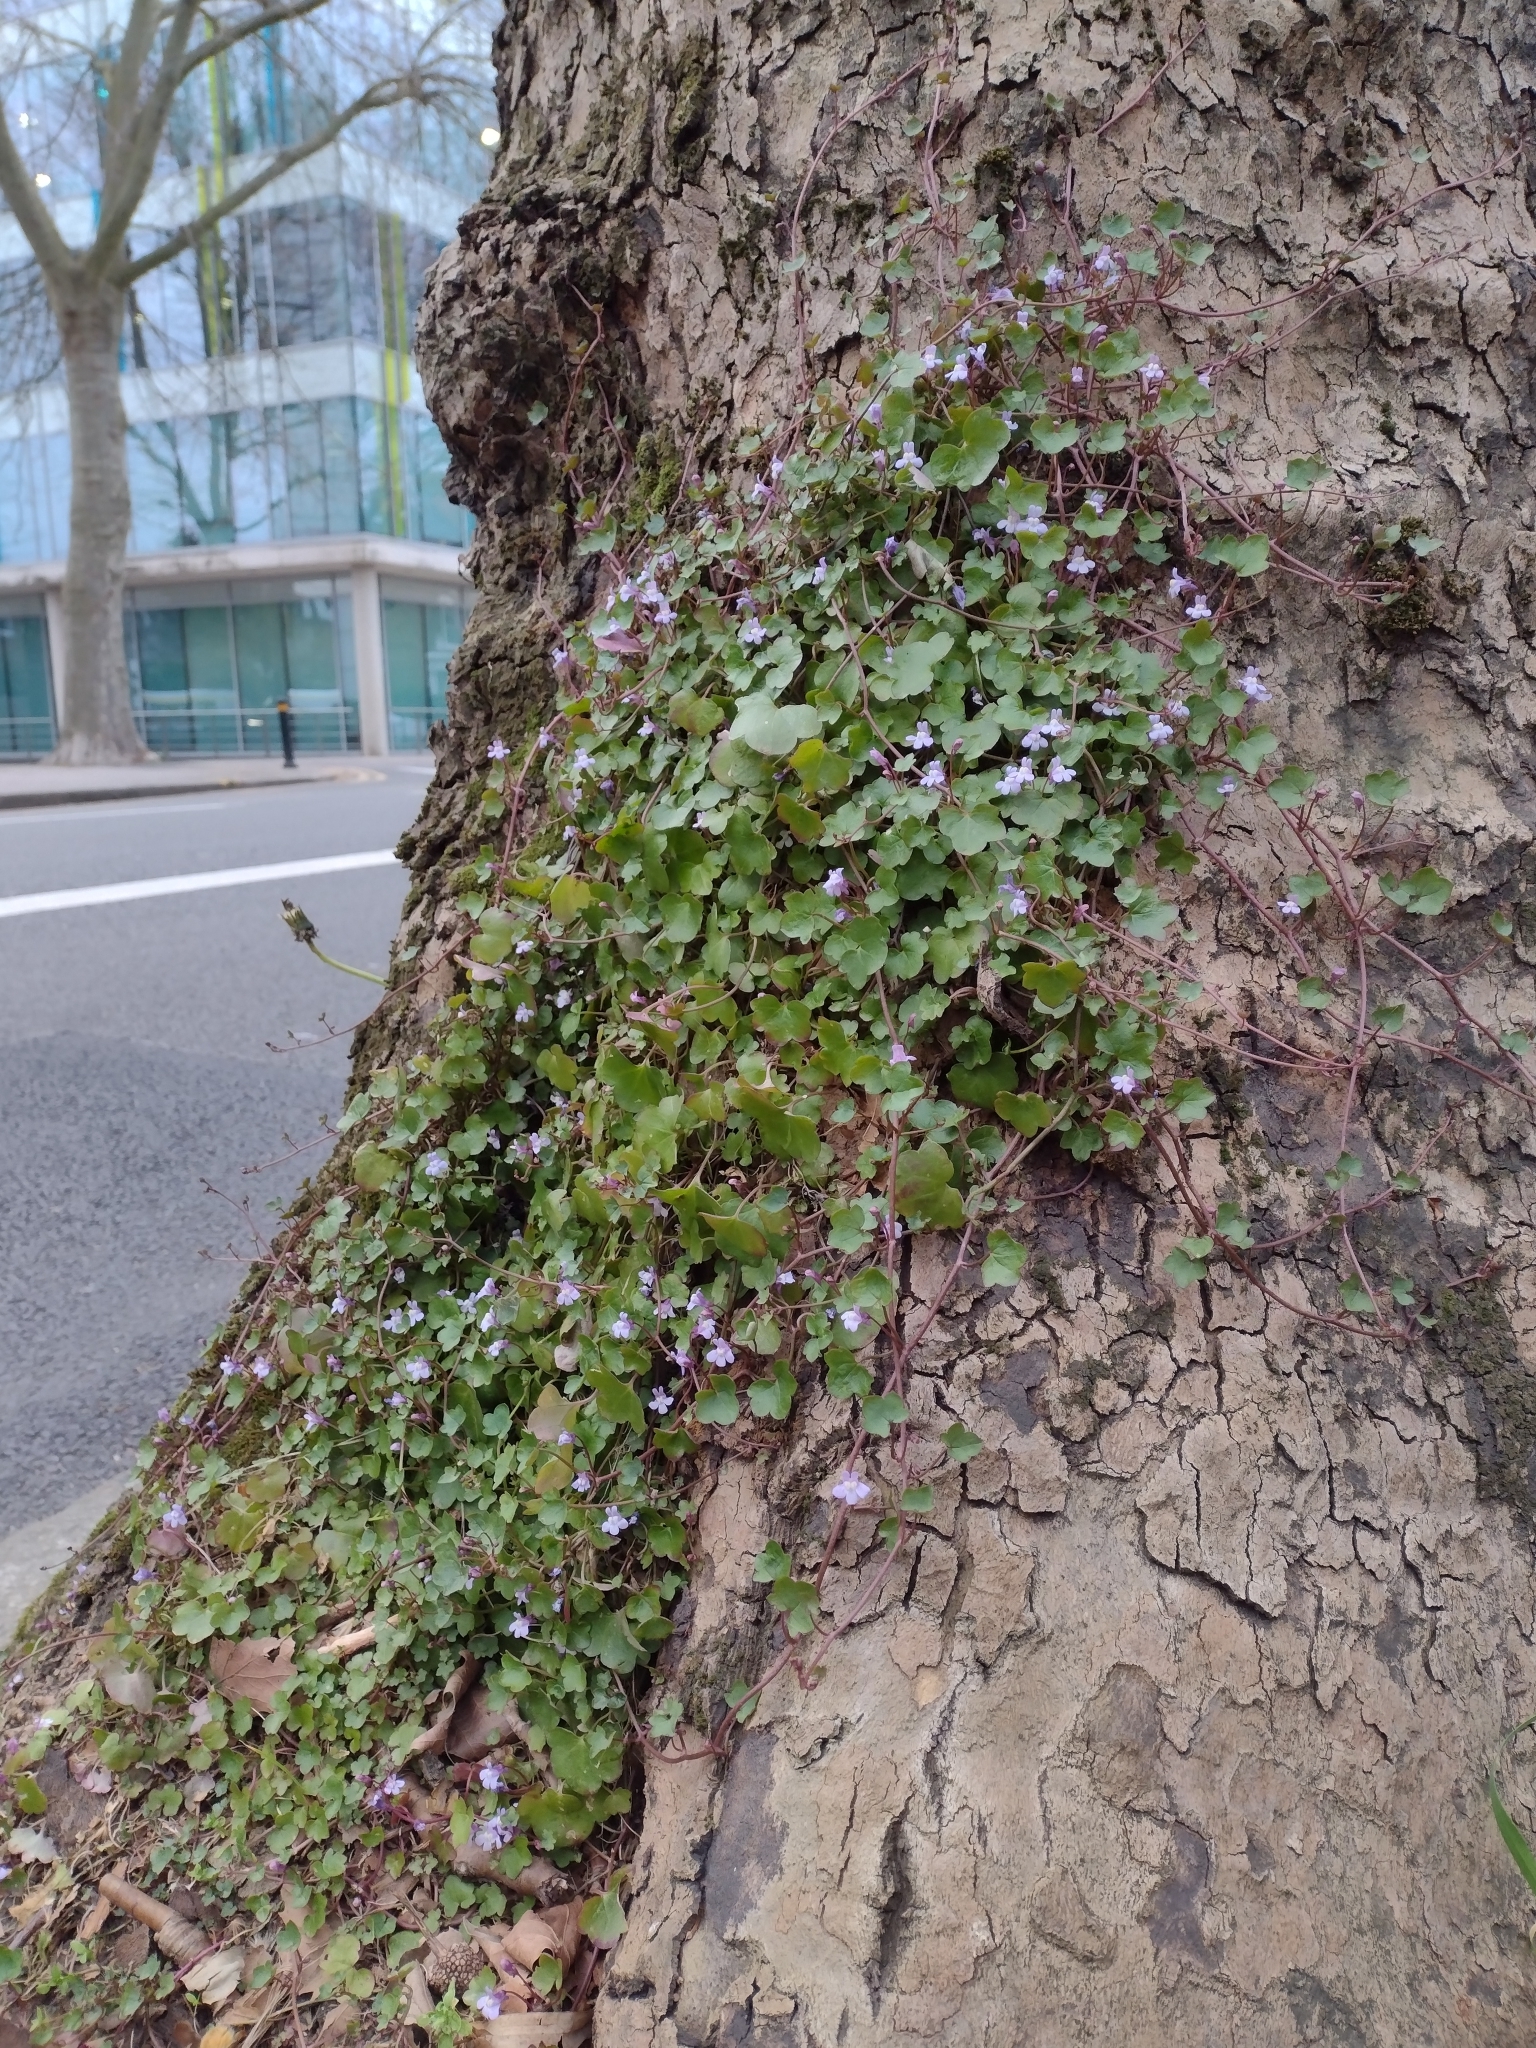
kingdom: Plantae
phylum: Tracheophyta
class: Magnoliopsida
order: Lamiales
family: Plantaginaceae
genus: Cymbalaria
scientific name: Cymbalaria muralis
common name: Ivy-leaved toadflax
